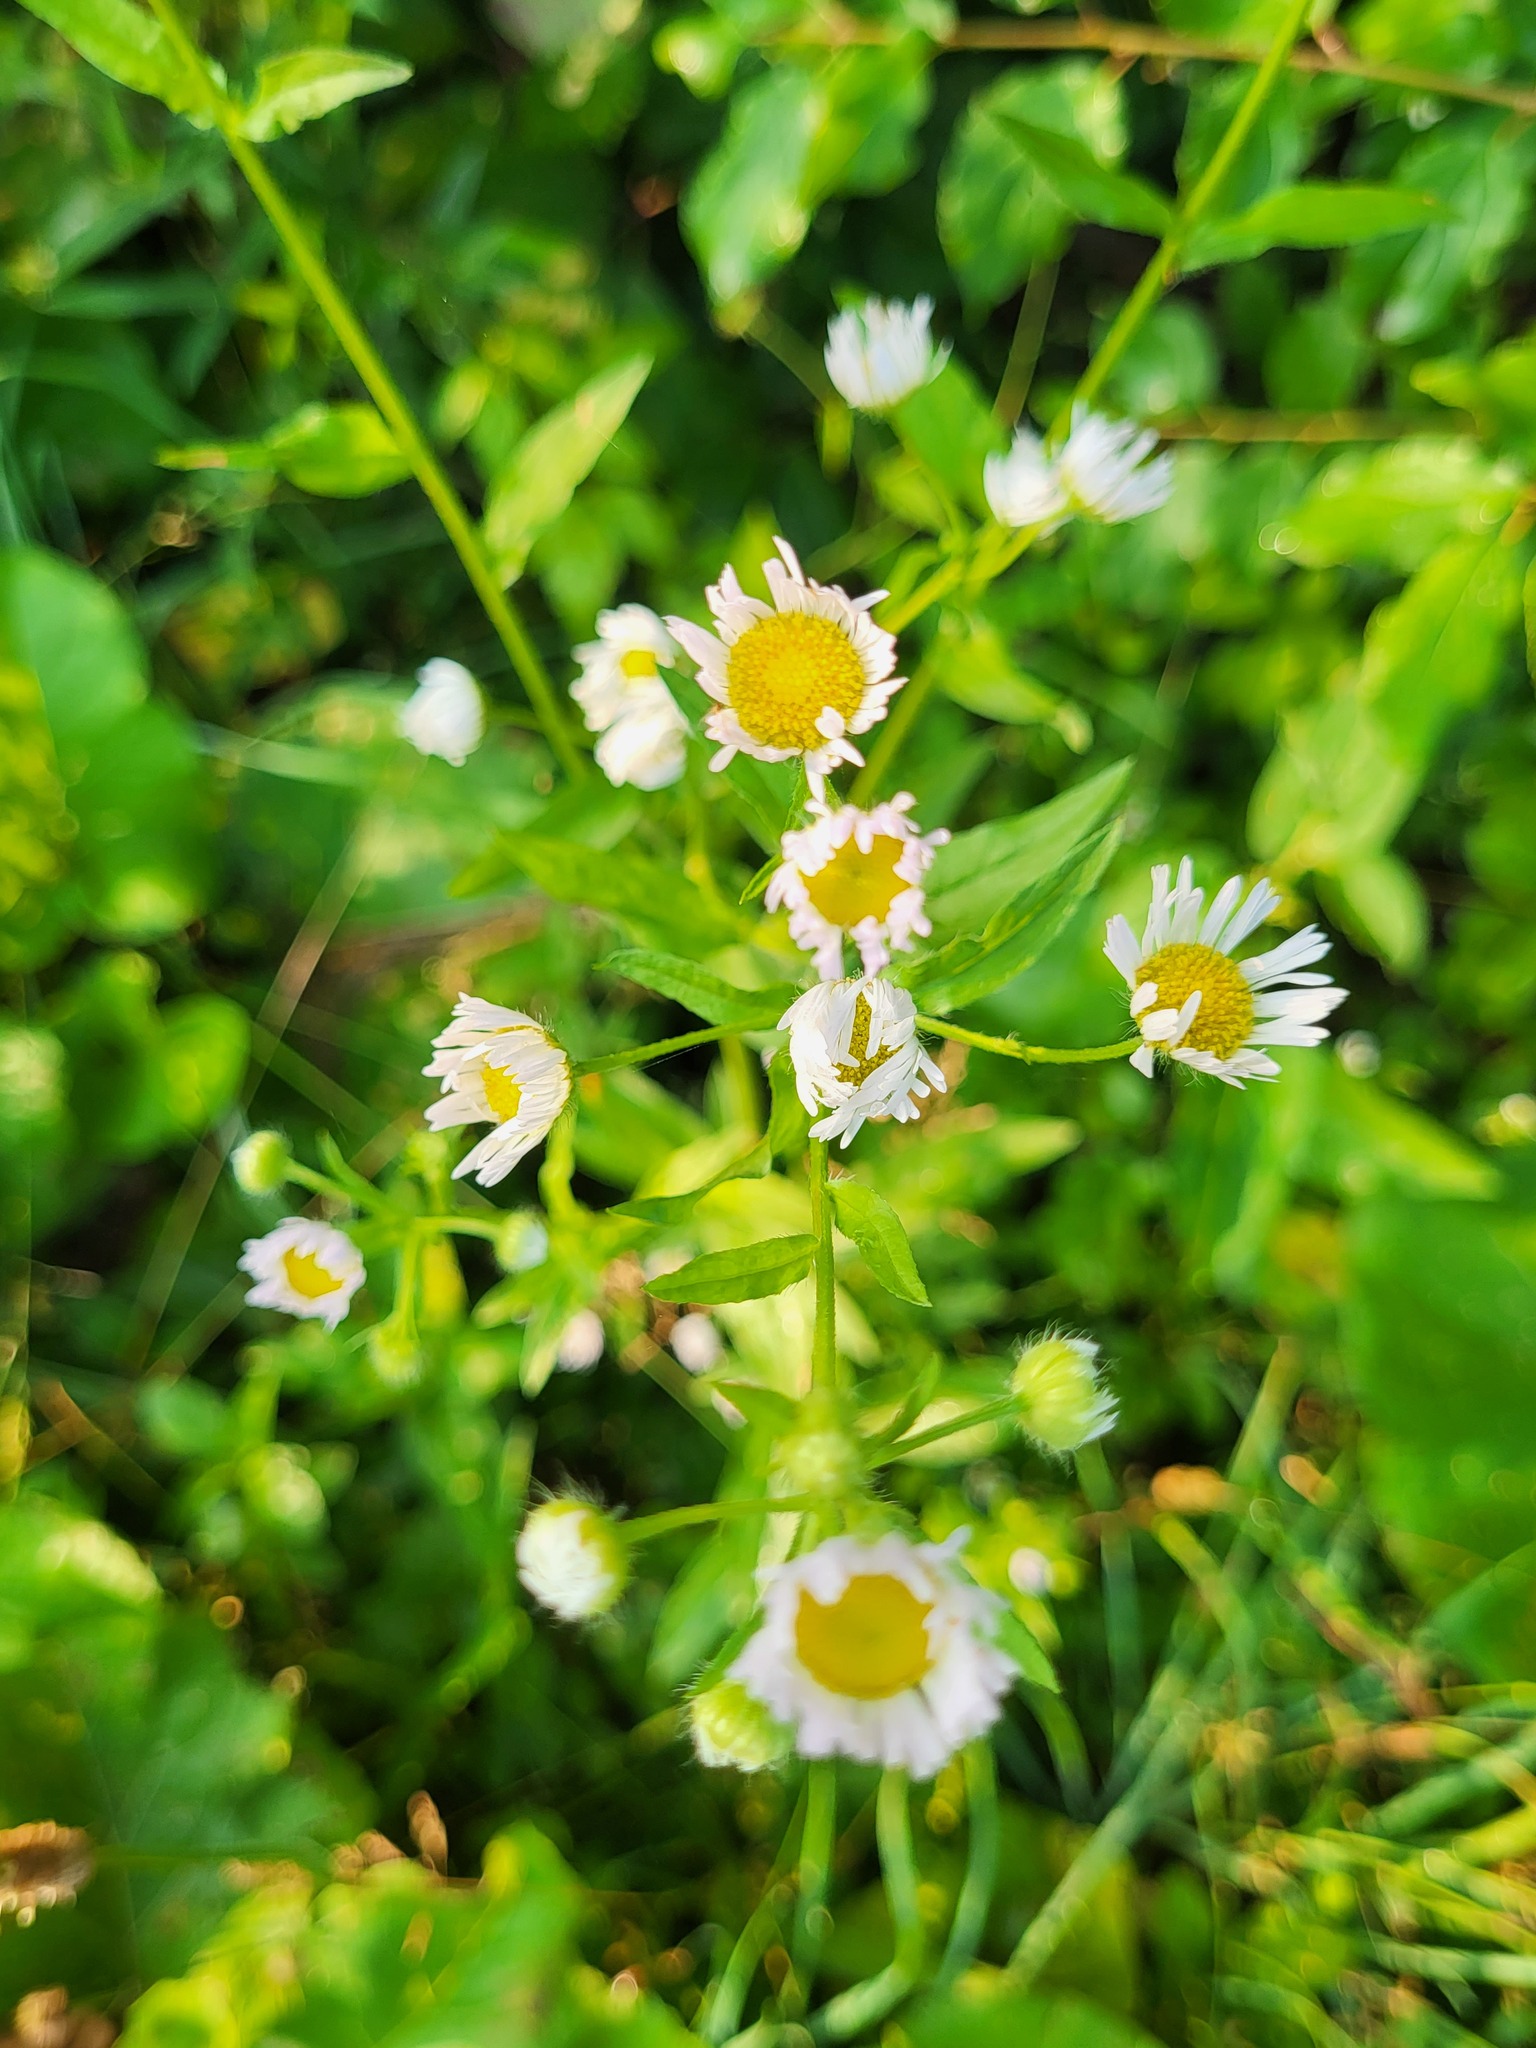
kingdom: Plantae
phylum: Tracheophyta
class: Magnoliopsida
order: Asterales
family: Asteraceae
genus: Erigeron
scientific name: Erigeron annuus
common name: Tall fleabane
